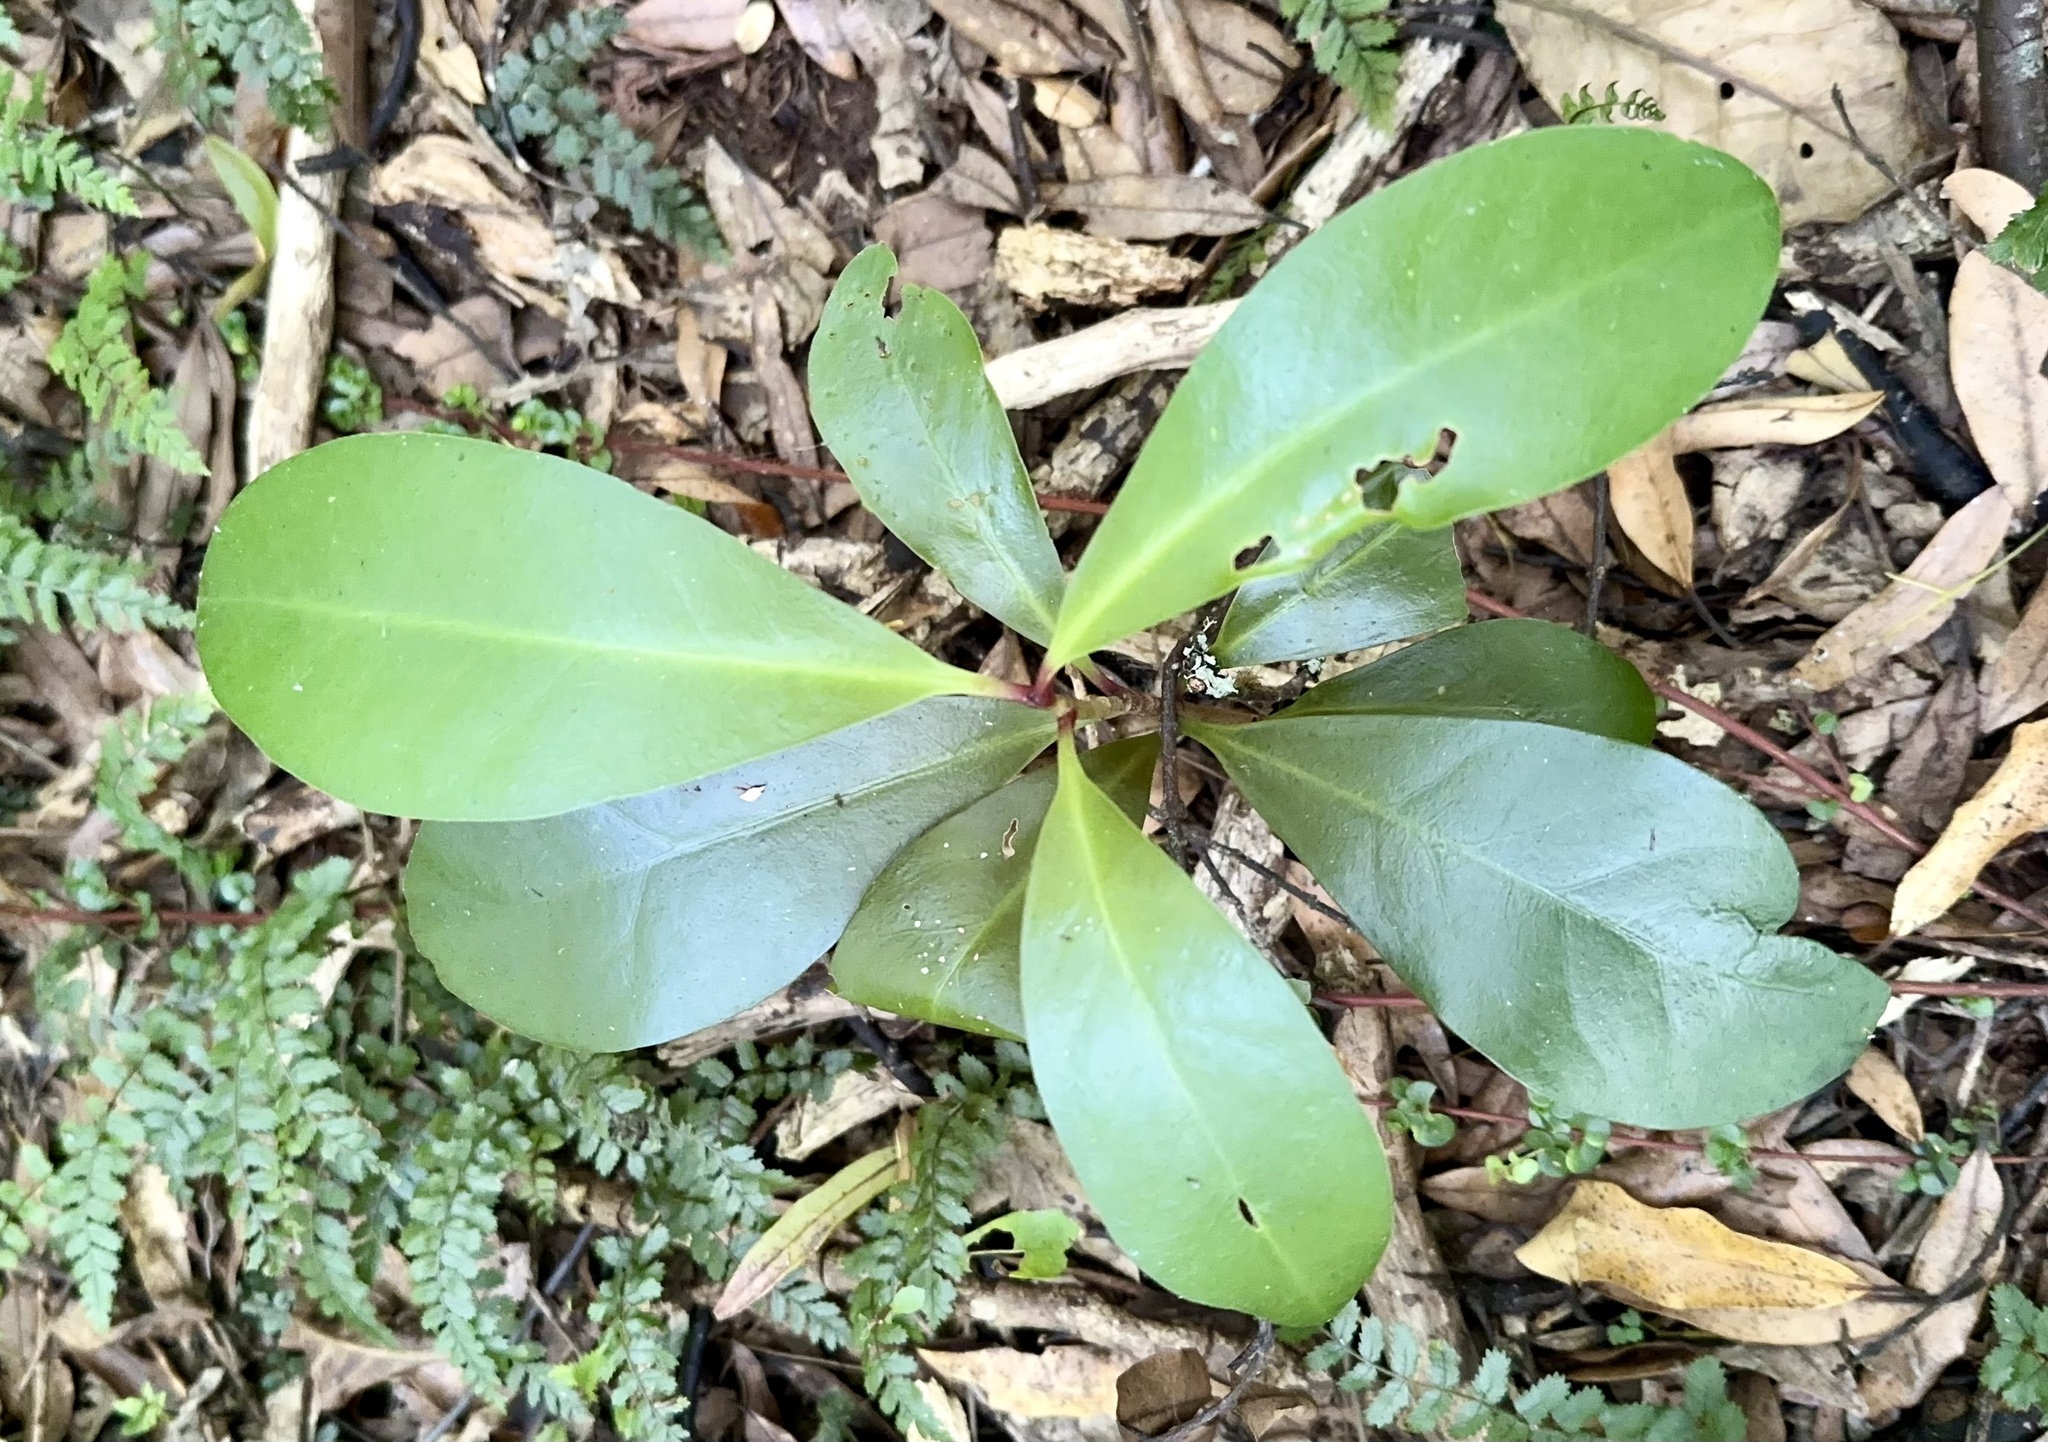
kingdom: Plantae
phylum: Tracheophyta
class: Magnoliopsida
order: Cucurbitales
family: Corynocarpaceae
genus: Corynocarpus
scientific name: Corynocarpus laevigatus
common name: New zealand laurel
